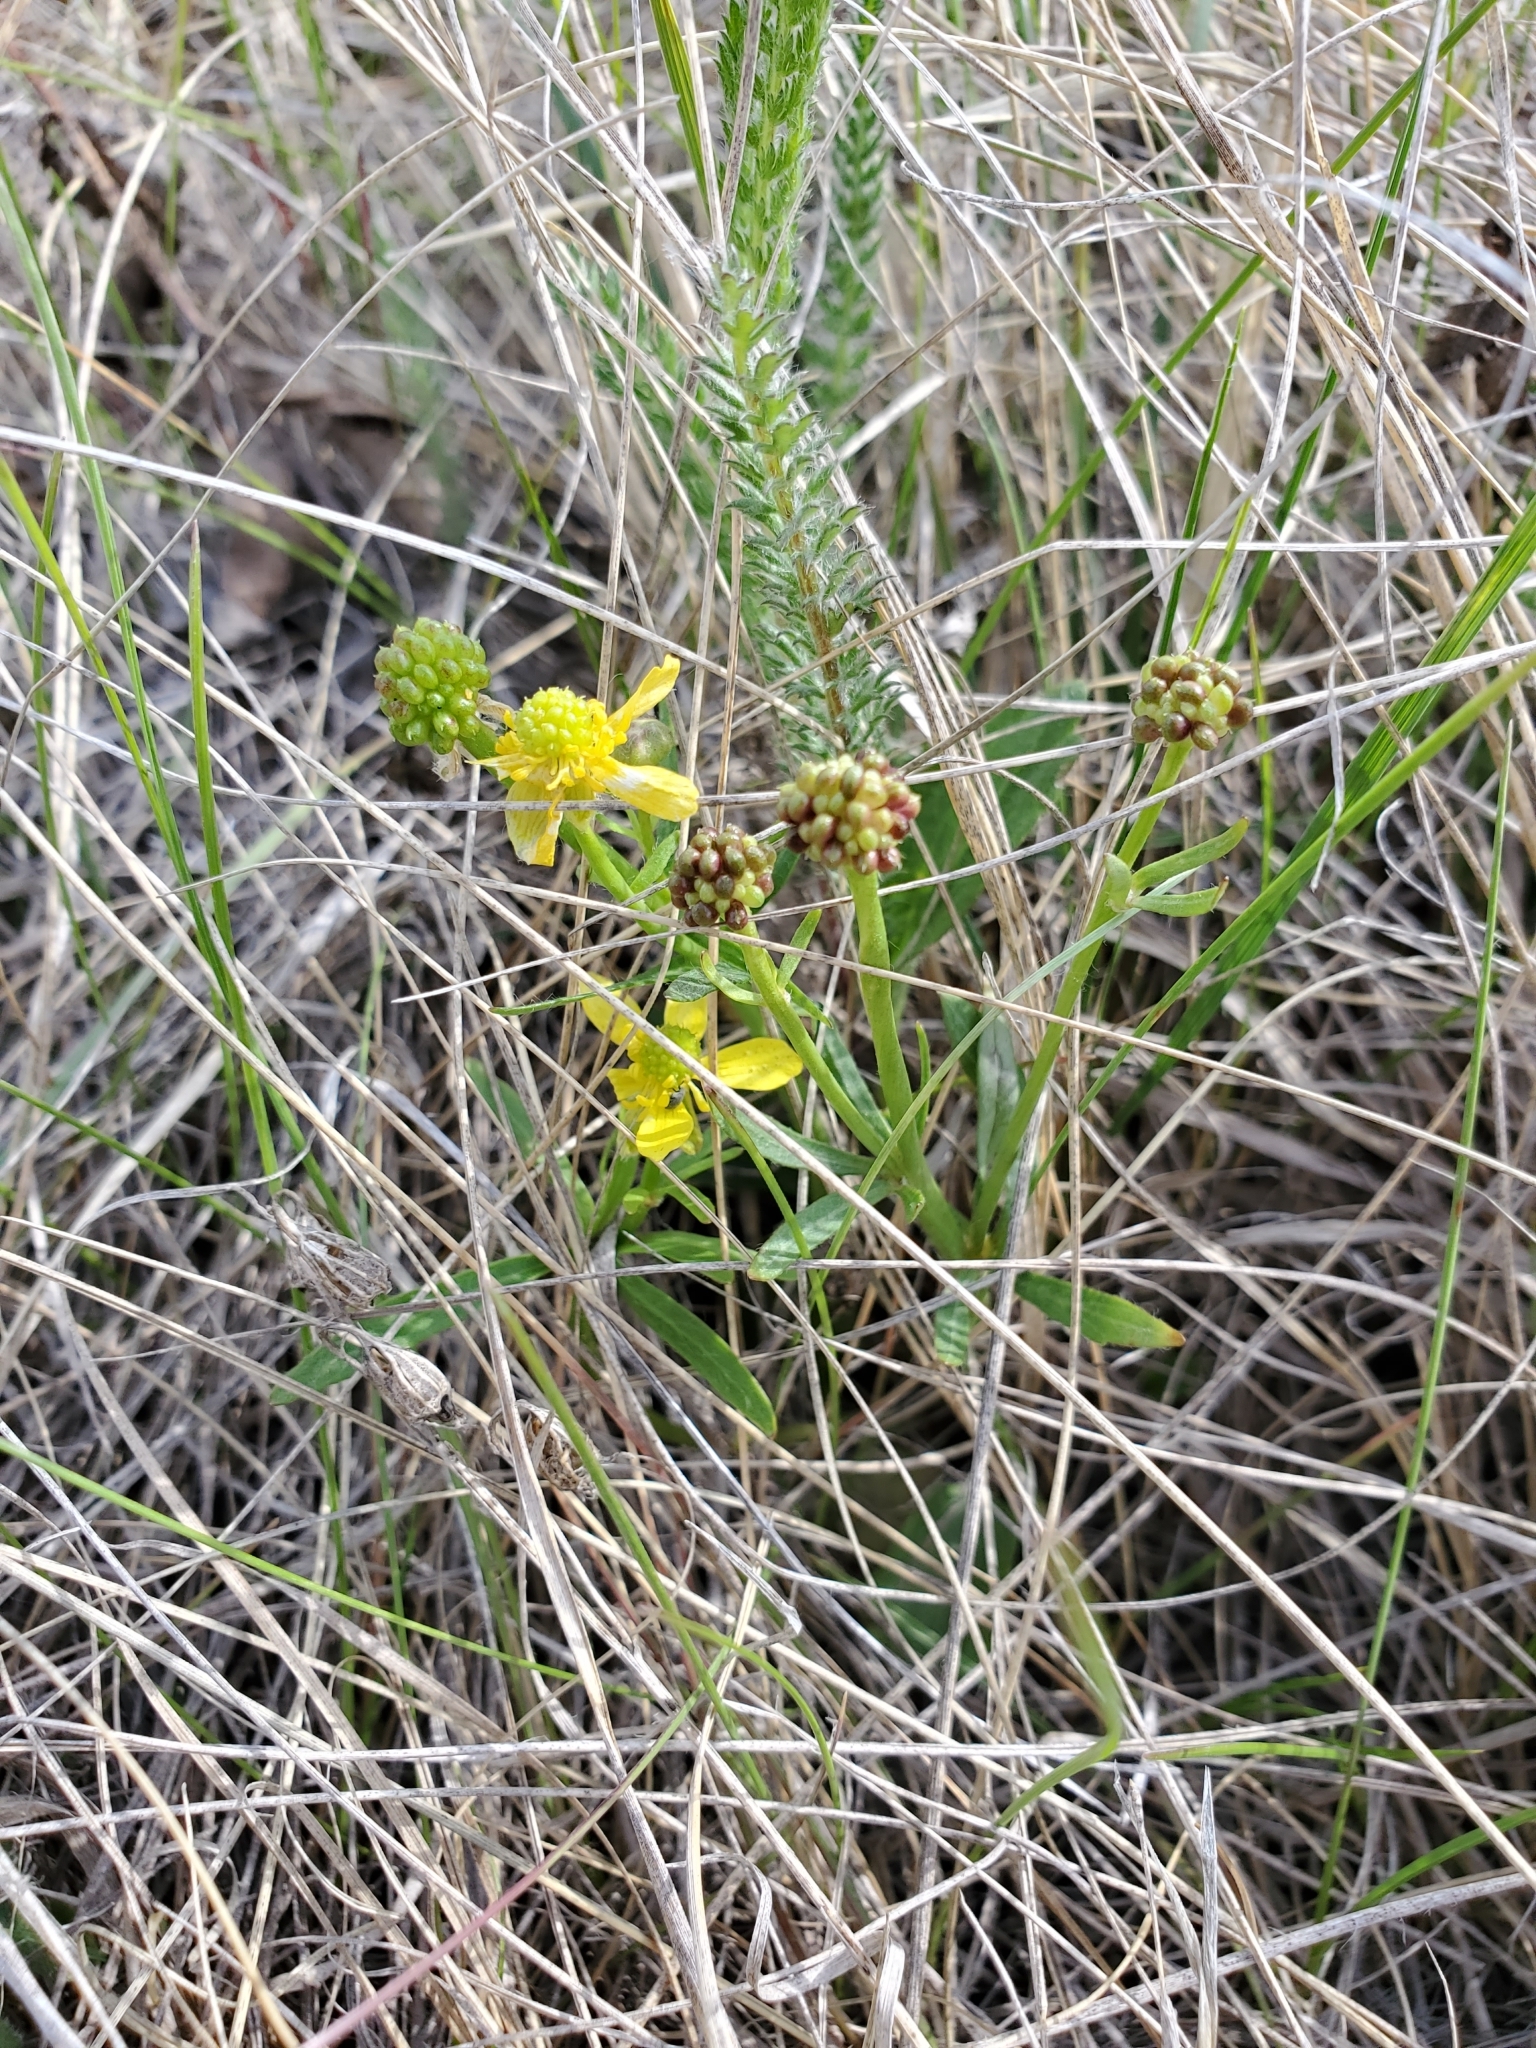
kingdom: Plantae
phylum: Tracheophyta
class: Magnoliopsida
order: Ranunculales
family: Ranunculaceae
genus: Ranunculus
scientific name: Ranunculus rhomboideus
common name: Prairie buttercup
